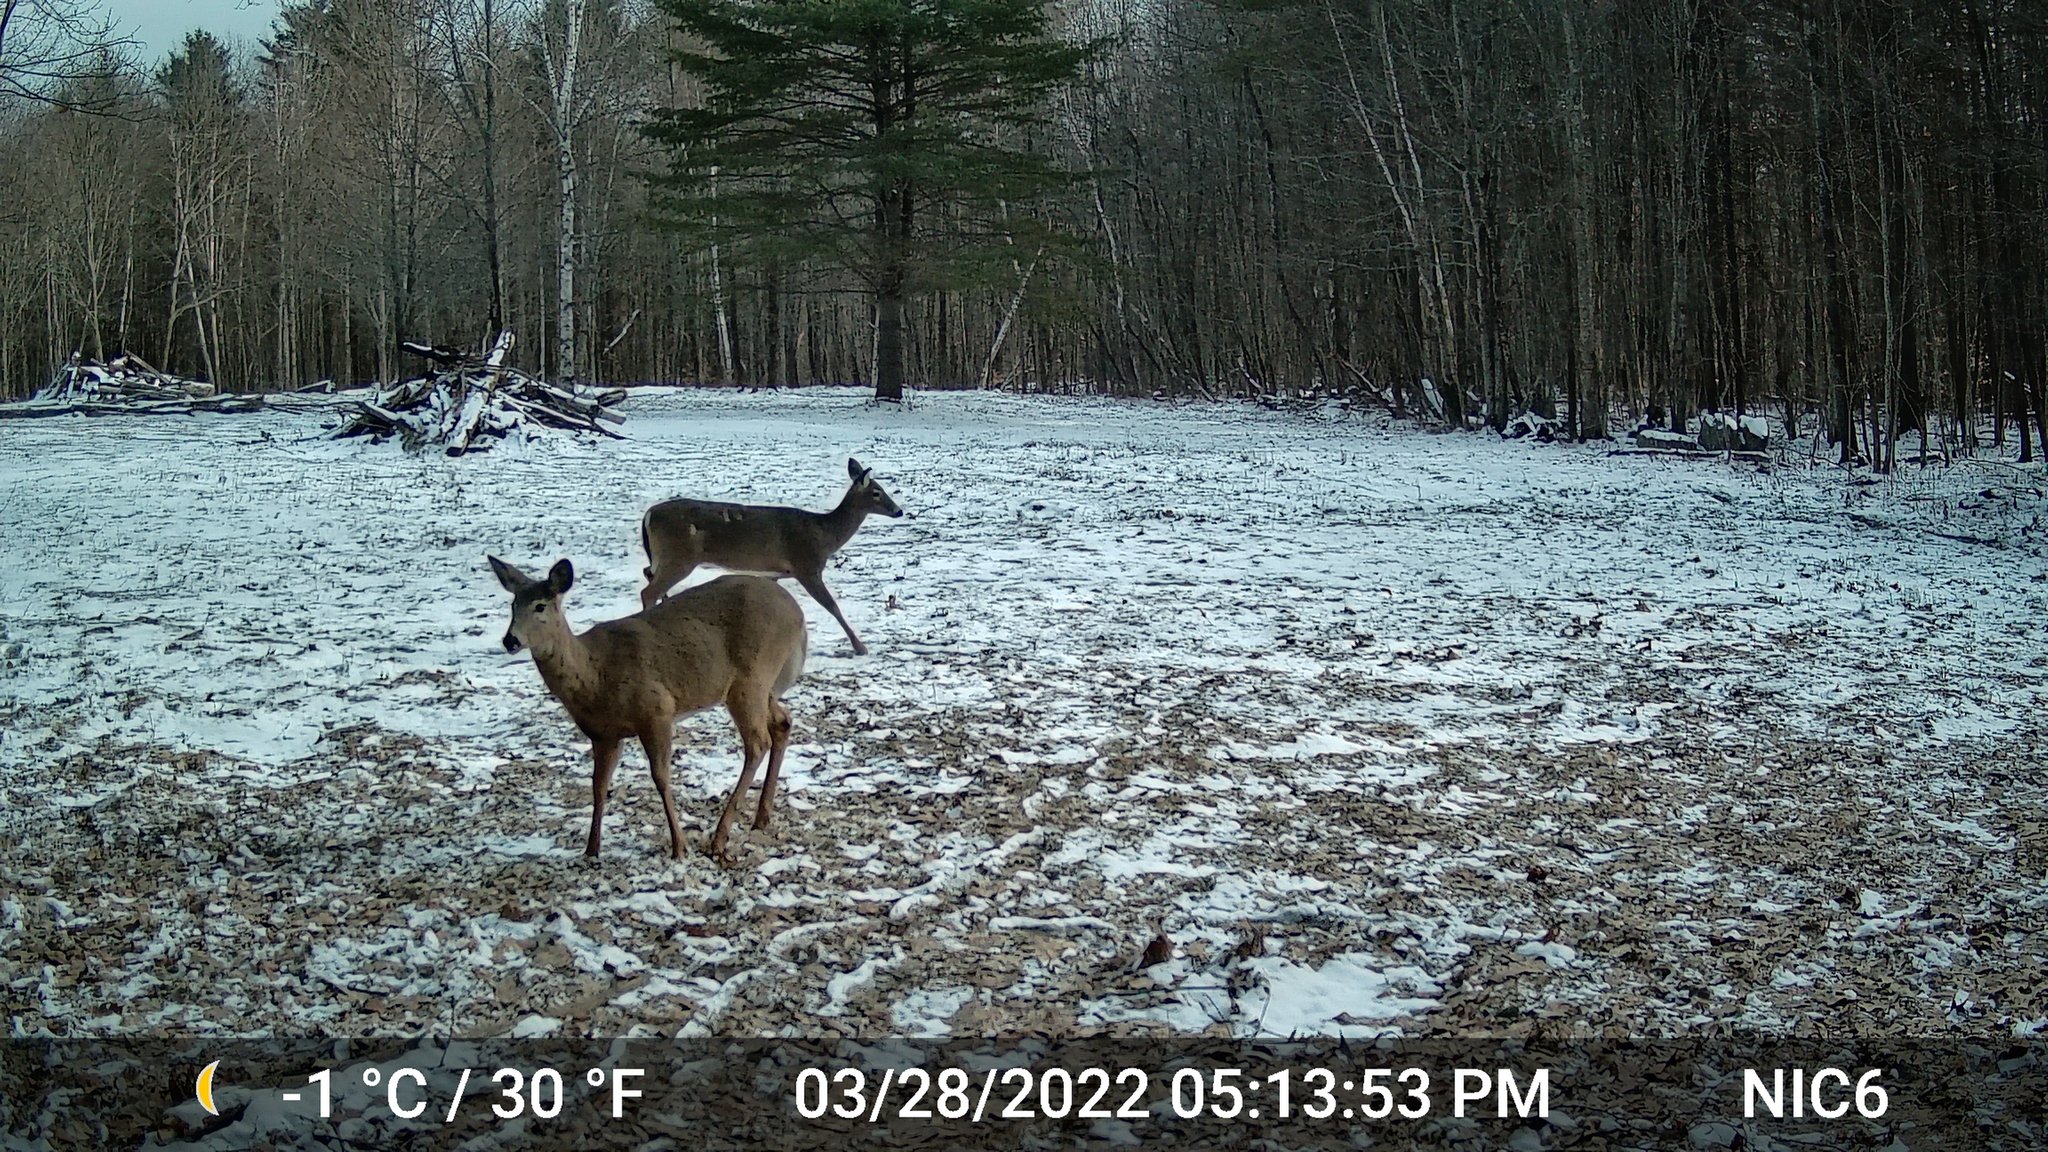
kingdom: Animalia
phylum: Chordata
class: Mammalia
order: Artiodactyla
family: Cervidae
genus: Odocoileus
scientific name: Odocoileus virginianus
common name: White-tailed deer
